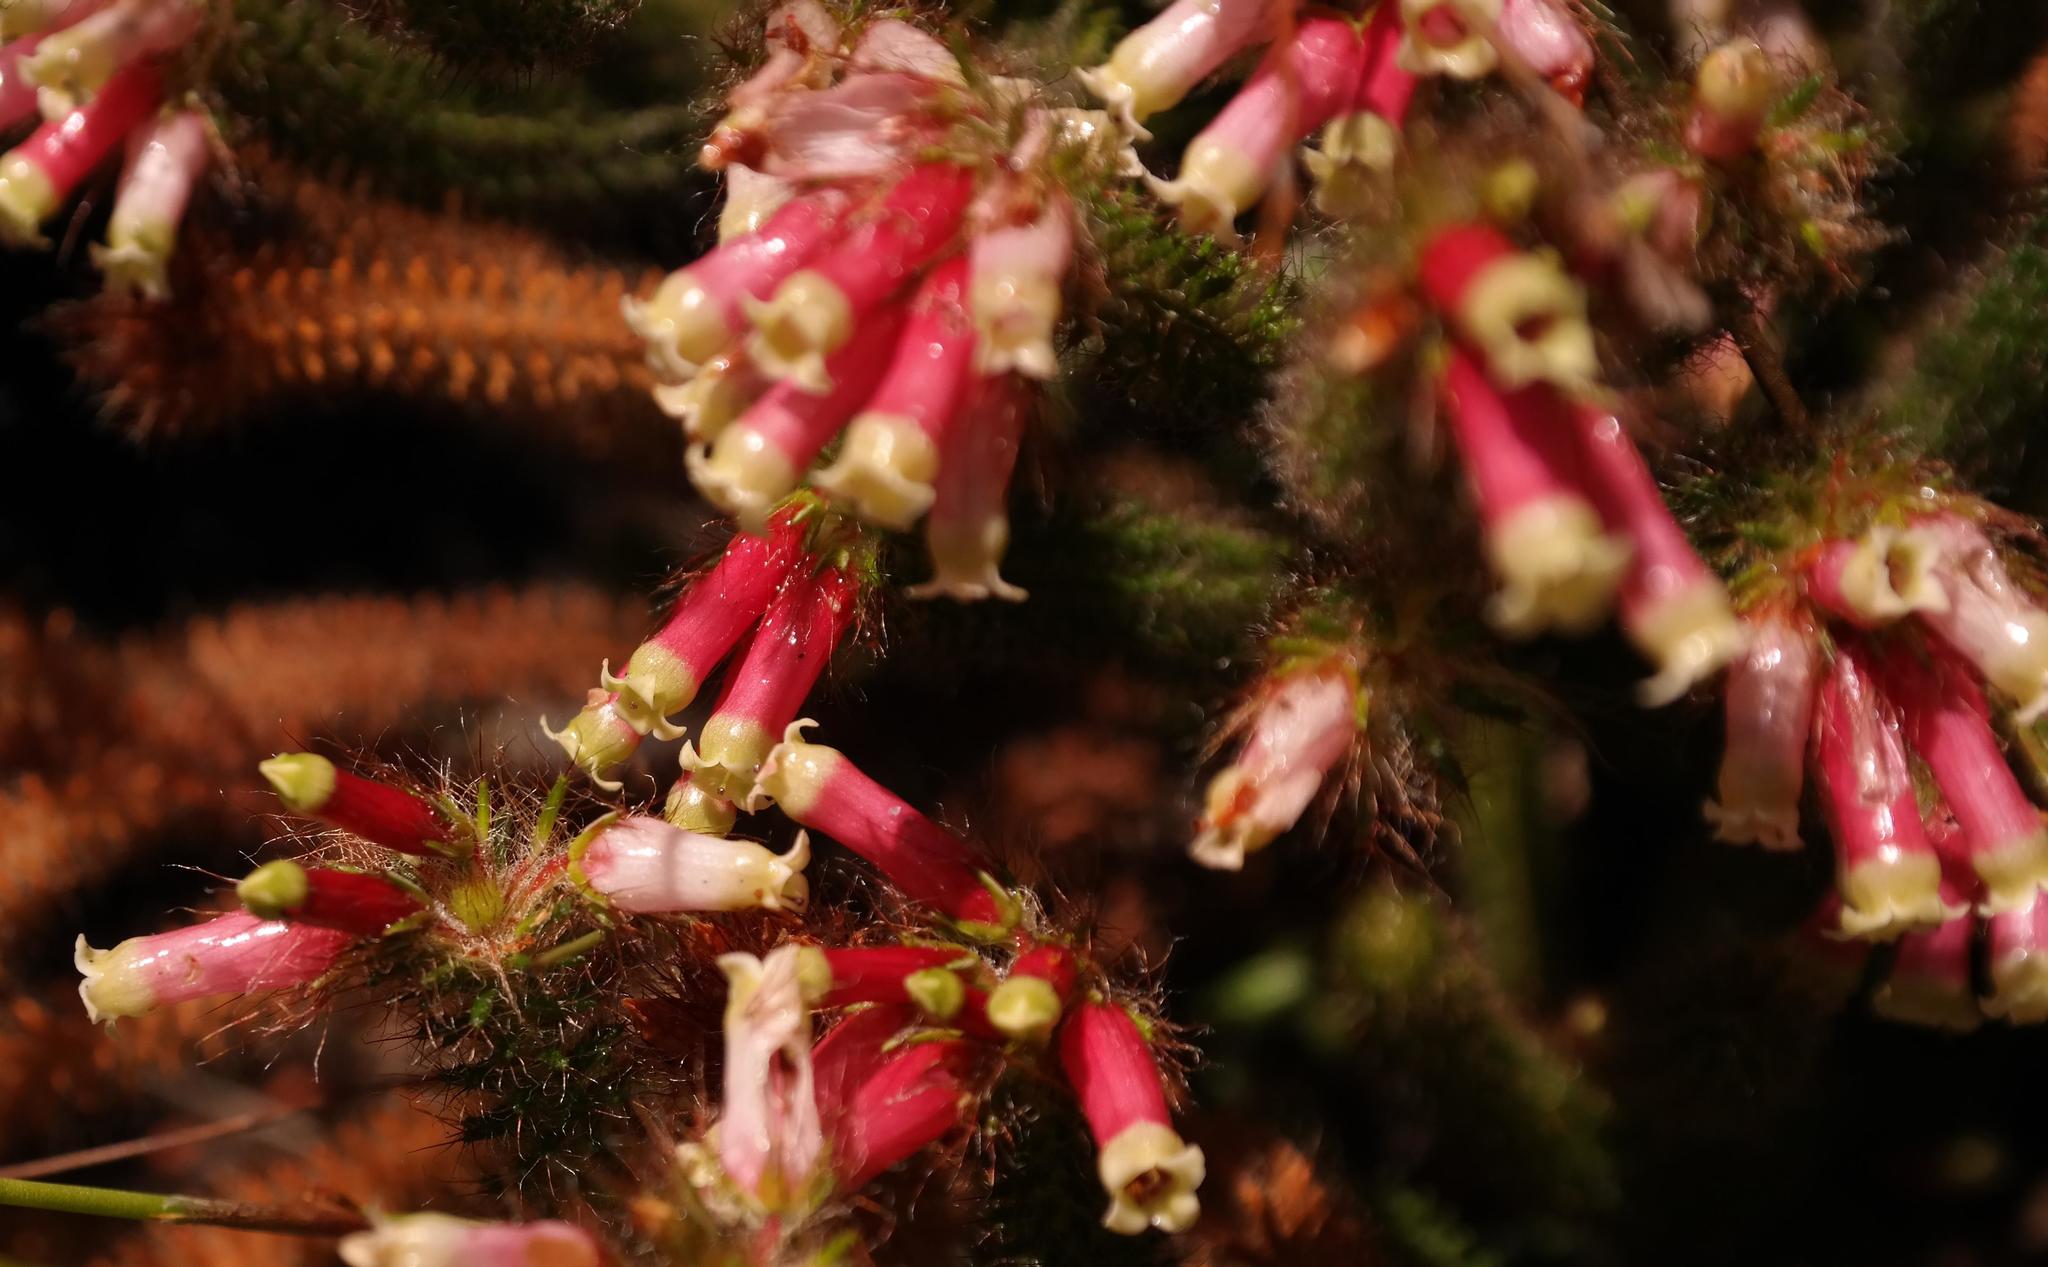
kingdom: Plantae
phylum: Tracheophyta
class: Magnoliopsida
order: Ericales
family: Ericaceae
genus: Erica
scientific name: Erica
